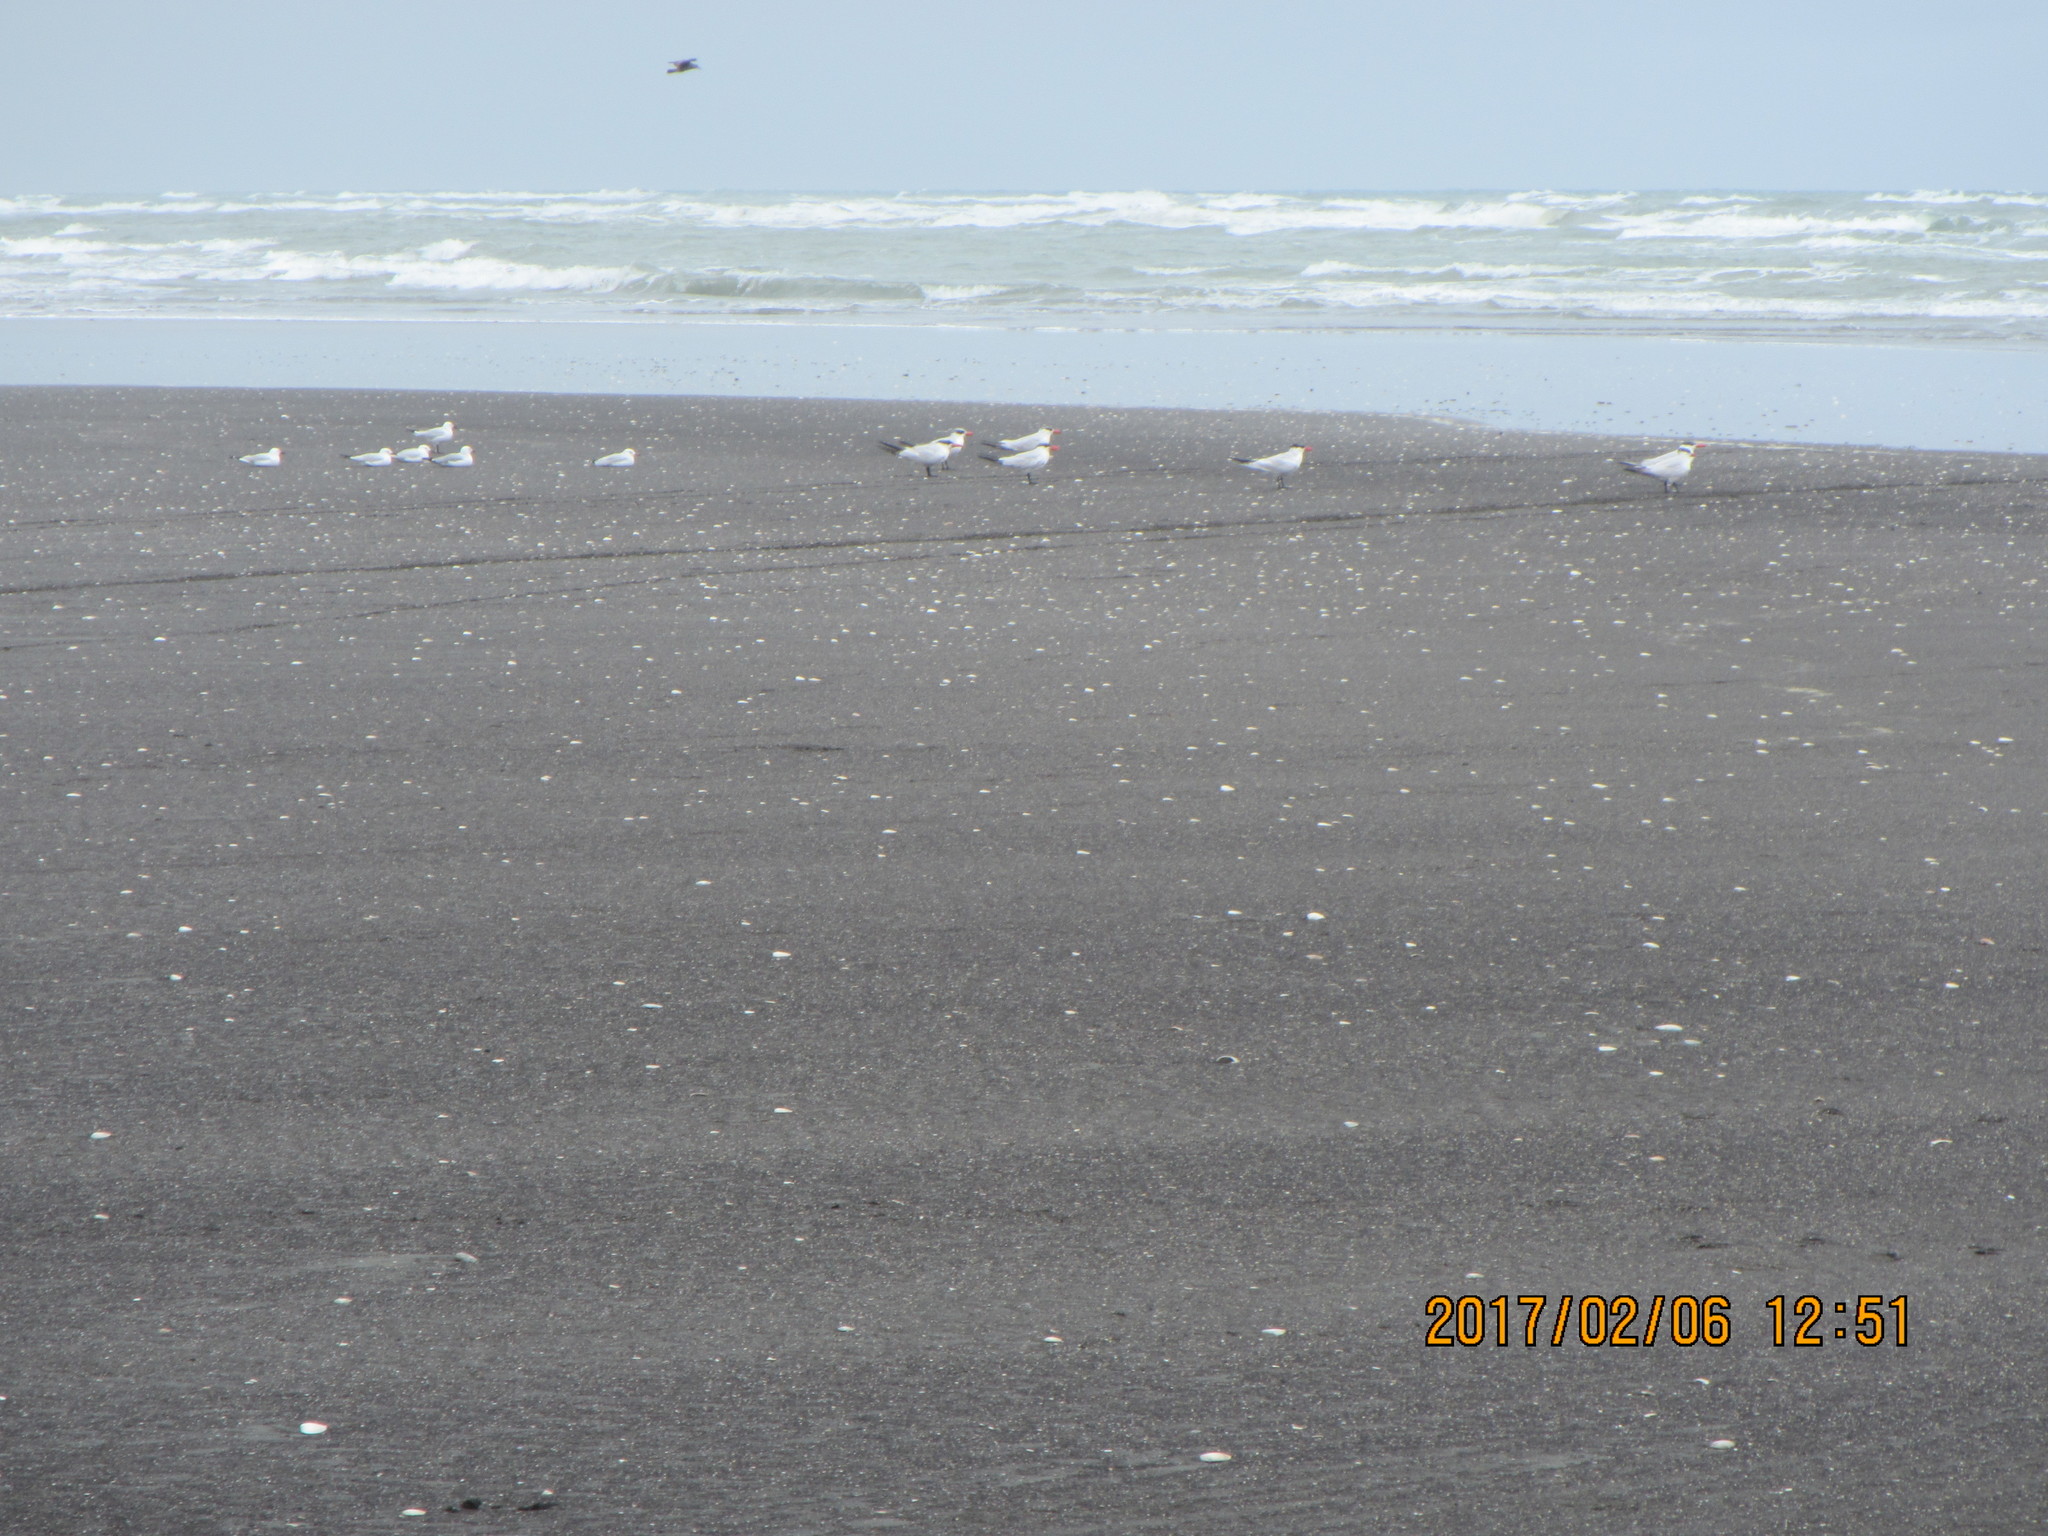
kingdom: Animalia
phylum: Chordata
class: Aves
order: Charadriiformes
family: Laridae
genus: Hydroprogne
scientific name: Hydroprogne caspia
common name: Caspian tern
